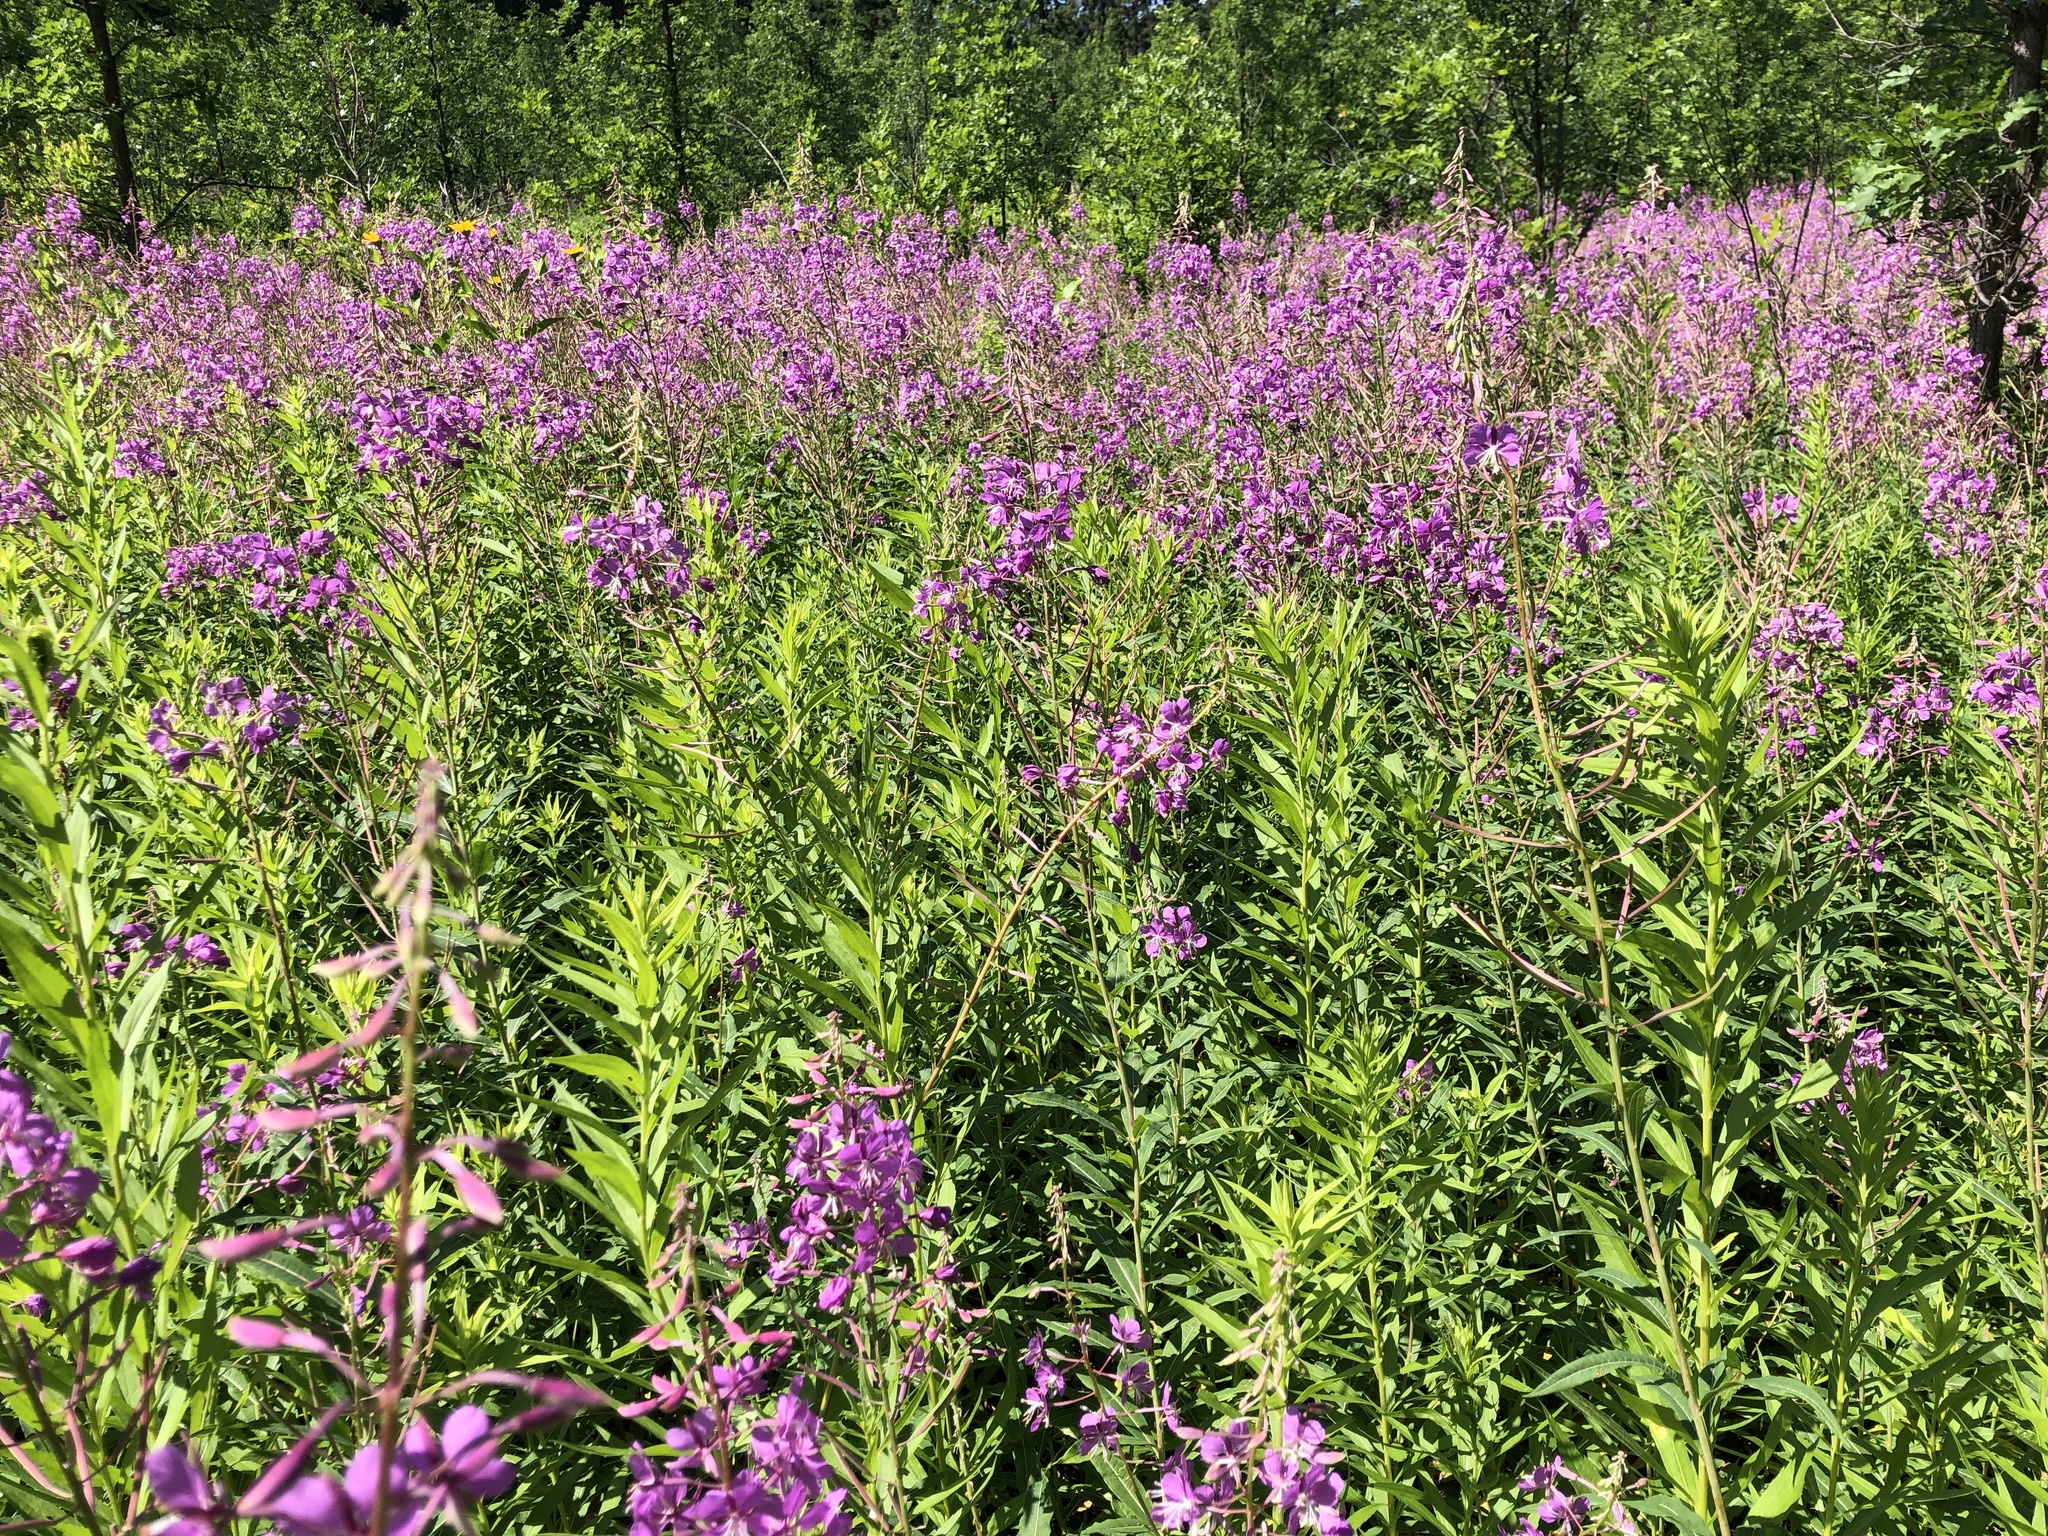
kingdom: Plantae
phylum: Tracheophyta
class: Magnoliopsida
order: Myrtales
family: Onagraceae
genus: Chamaenerion
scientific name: Chamaenerion angustifolium
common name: Fireweed
